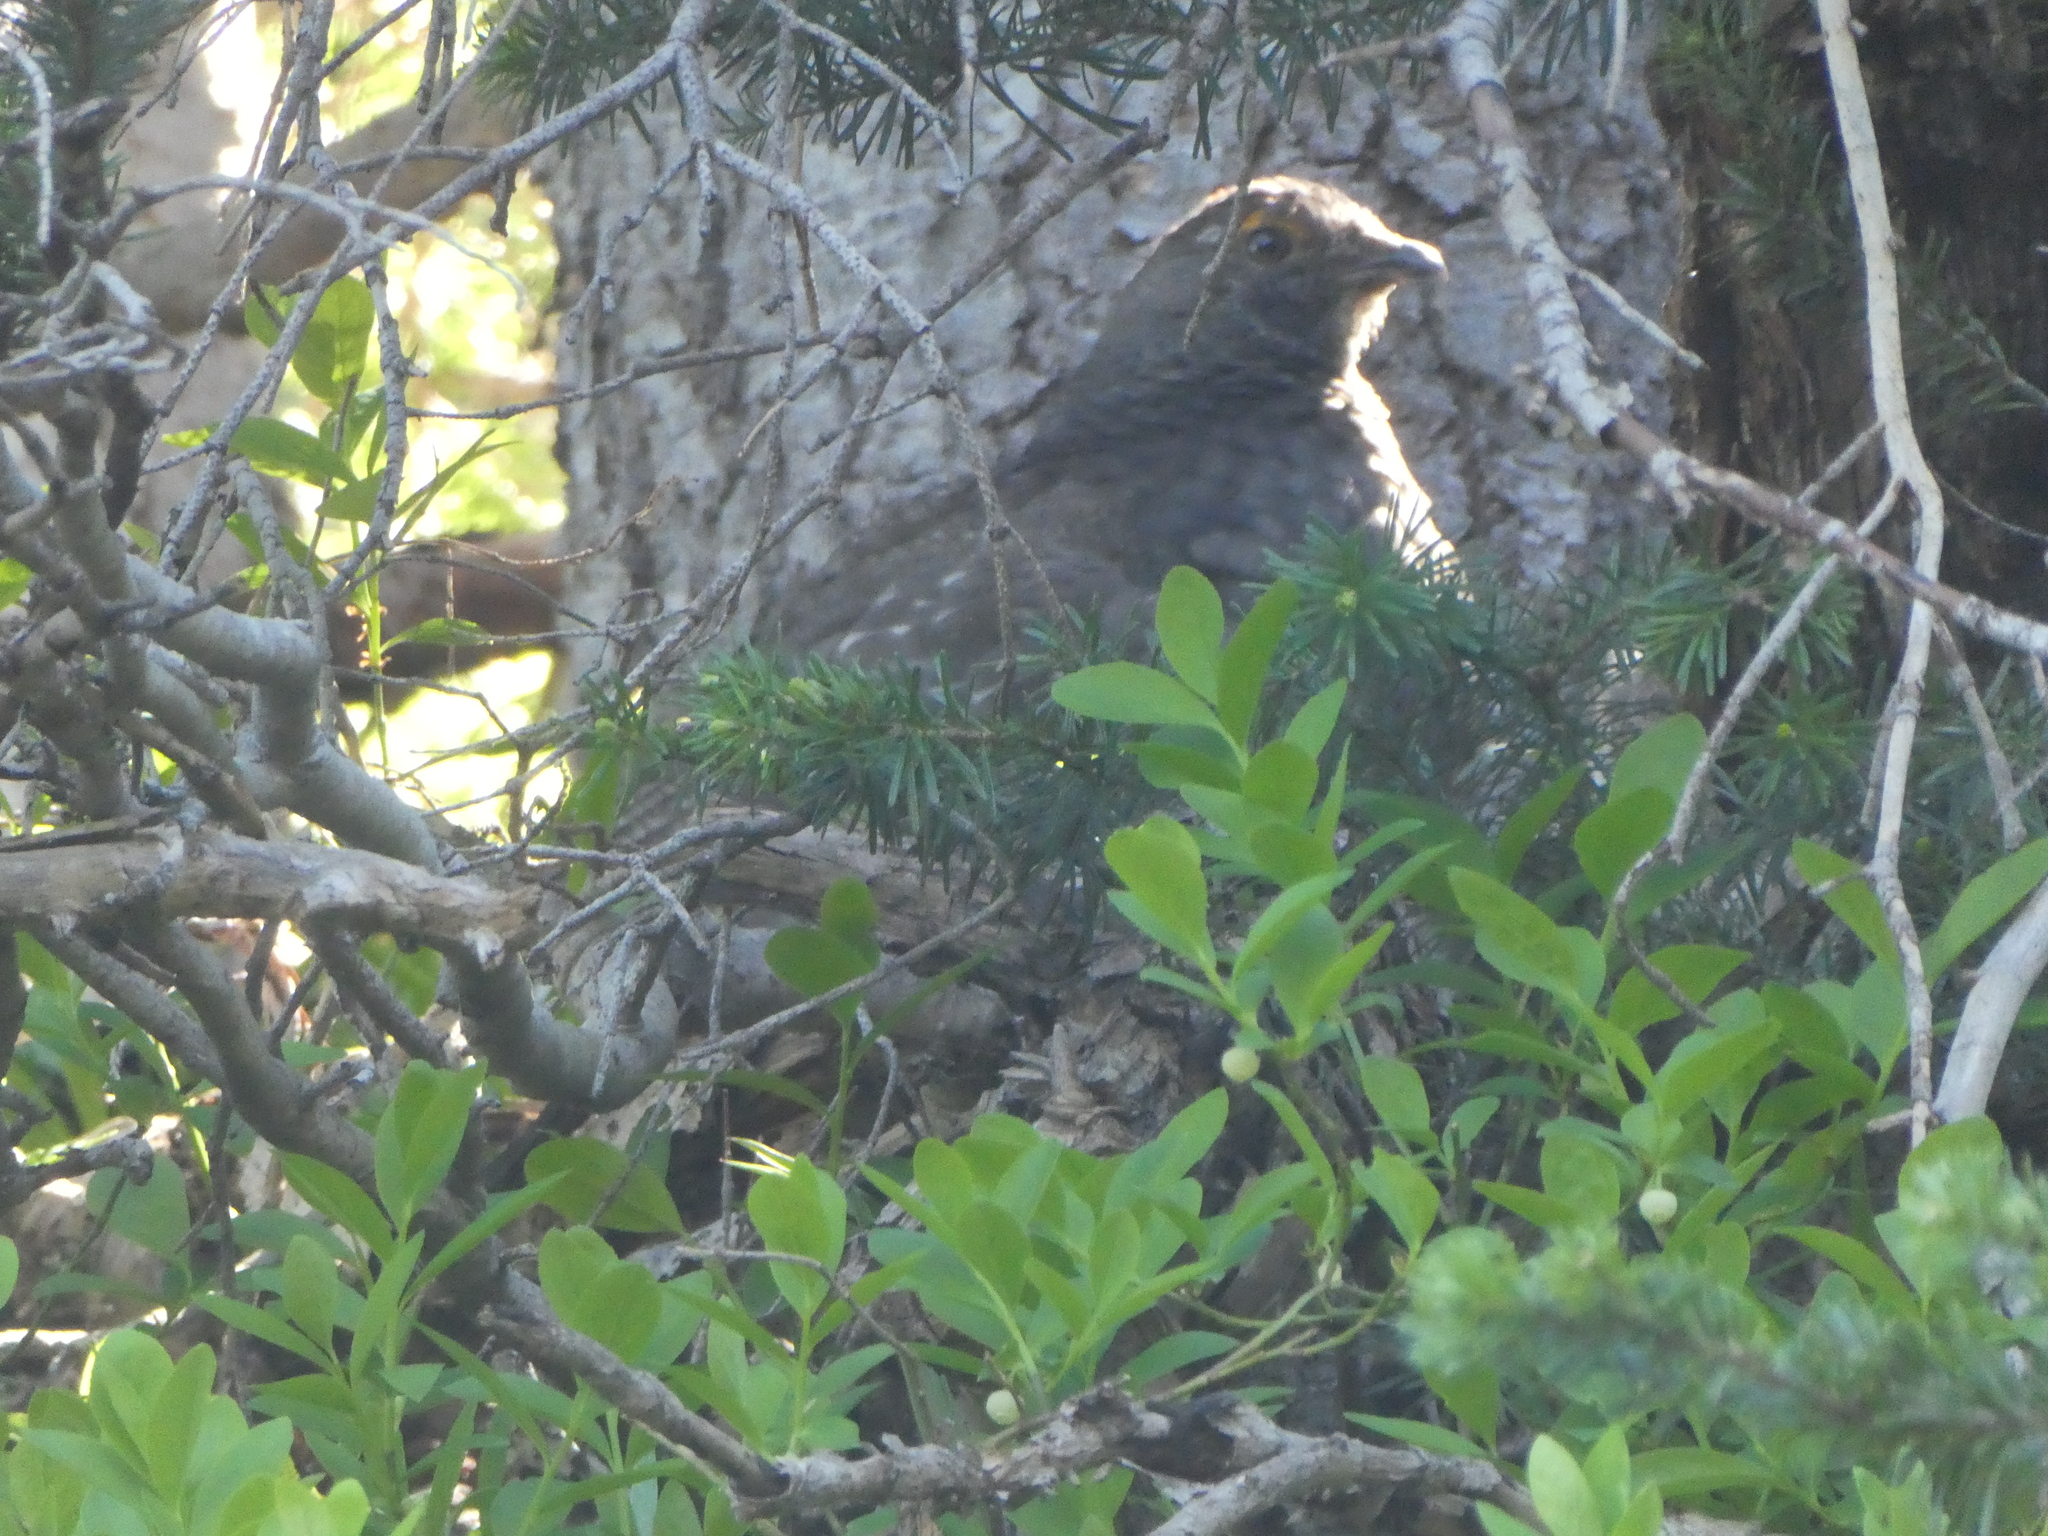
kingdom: Animalia
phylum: Chordata
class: Aves
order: Galliformes
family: Phasianidae
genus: Dendragapus
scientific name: Dendragapus fuliginosus
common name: Sooty grouse
